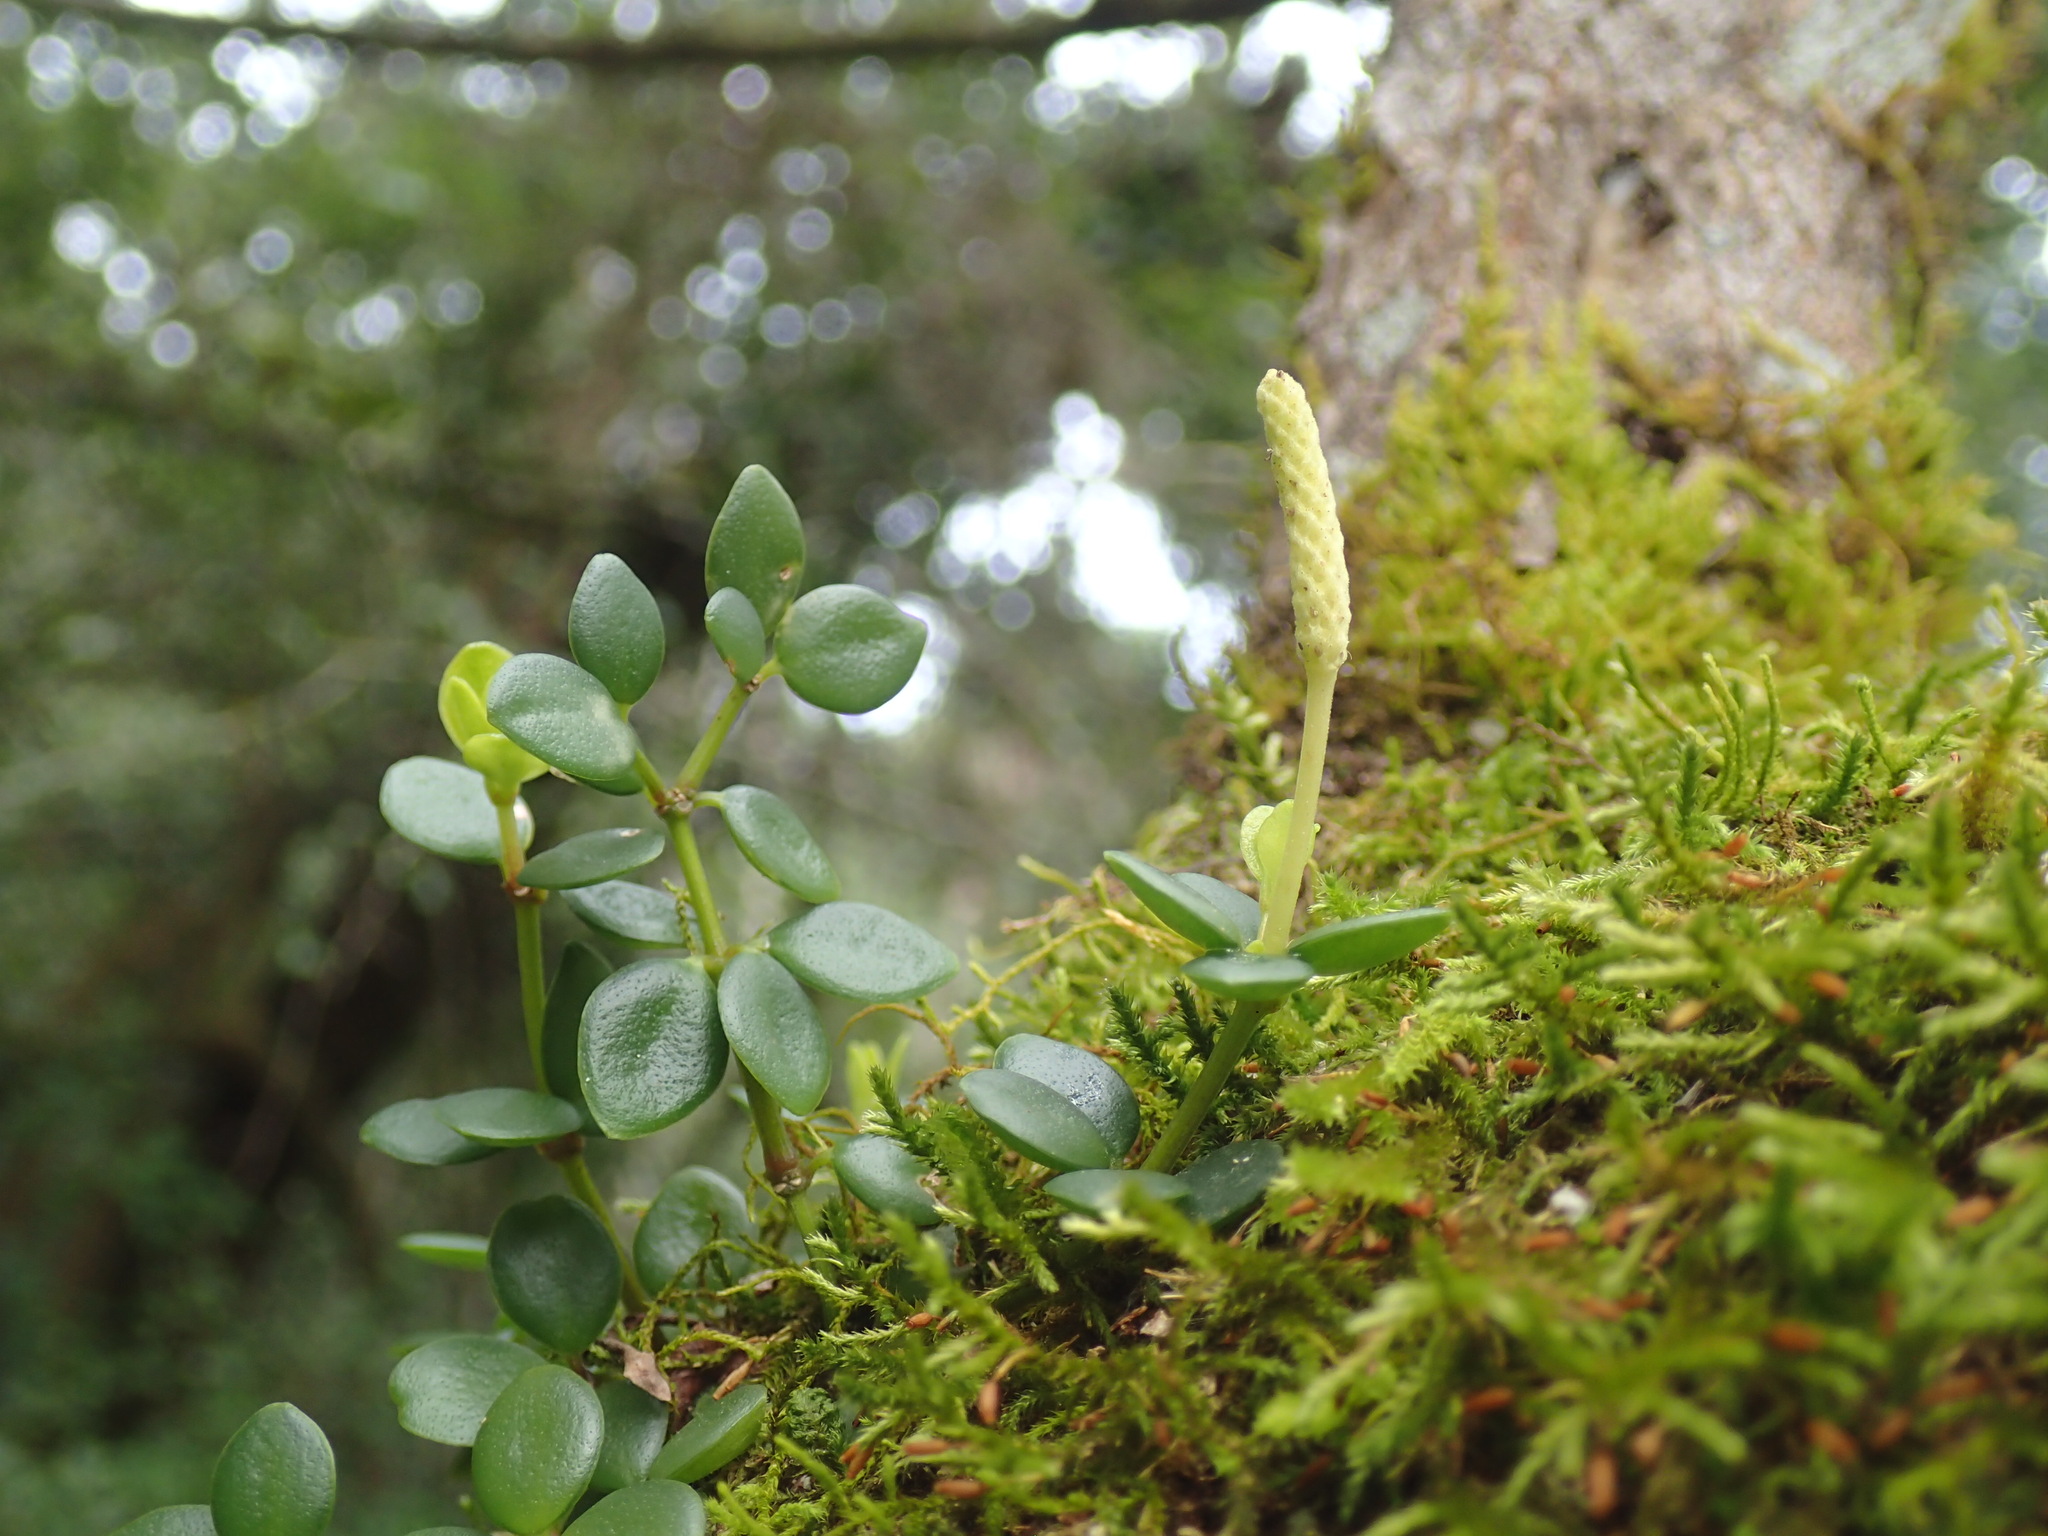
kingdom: Plantae
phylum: Tracheophyta
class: Magnoliopsida
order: Piperales
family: Piperaceae
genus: Peperomia
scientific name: Peperomia tetraphylla
